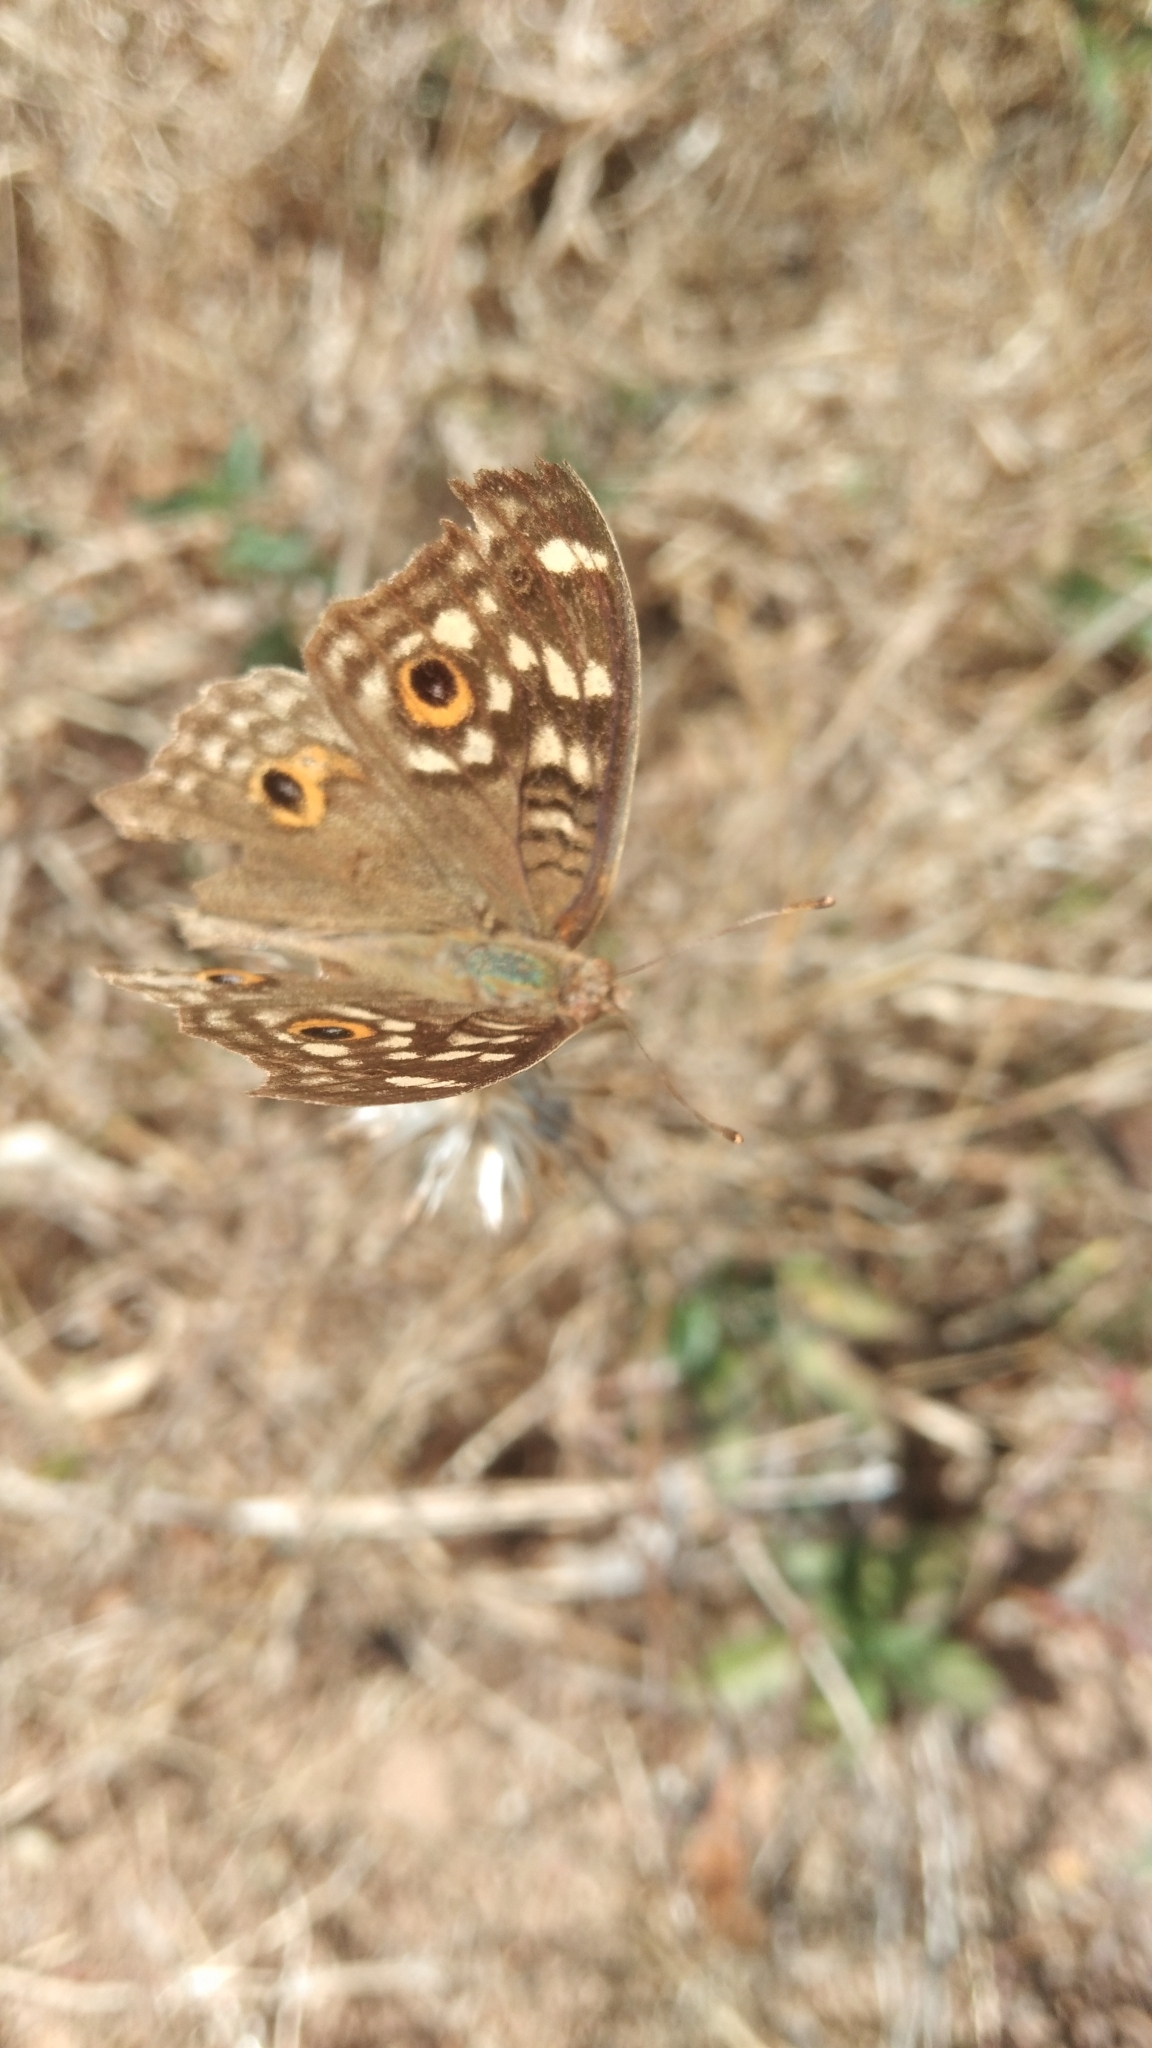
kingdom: Animalia
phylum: Arthropoda
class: Insecta
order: Lepidoptera
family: Nymphalidae
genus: Junonia
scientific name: Junonia lemonias
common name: Lemon pansy
